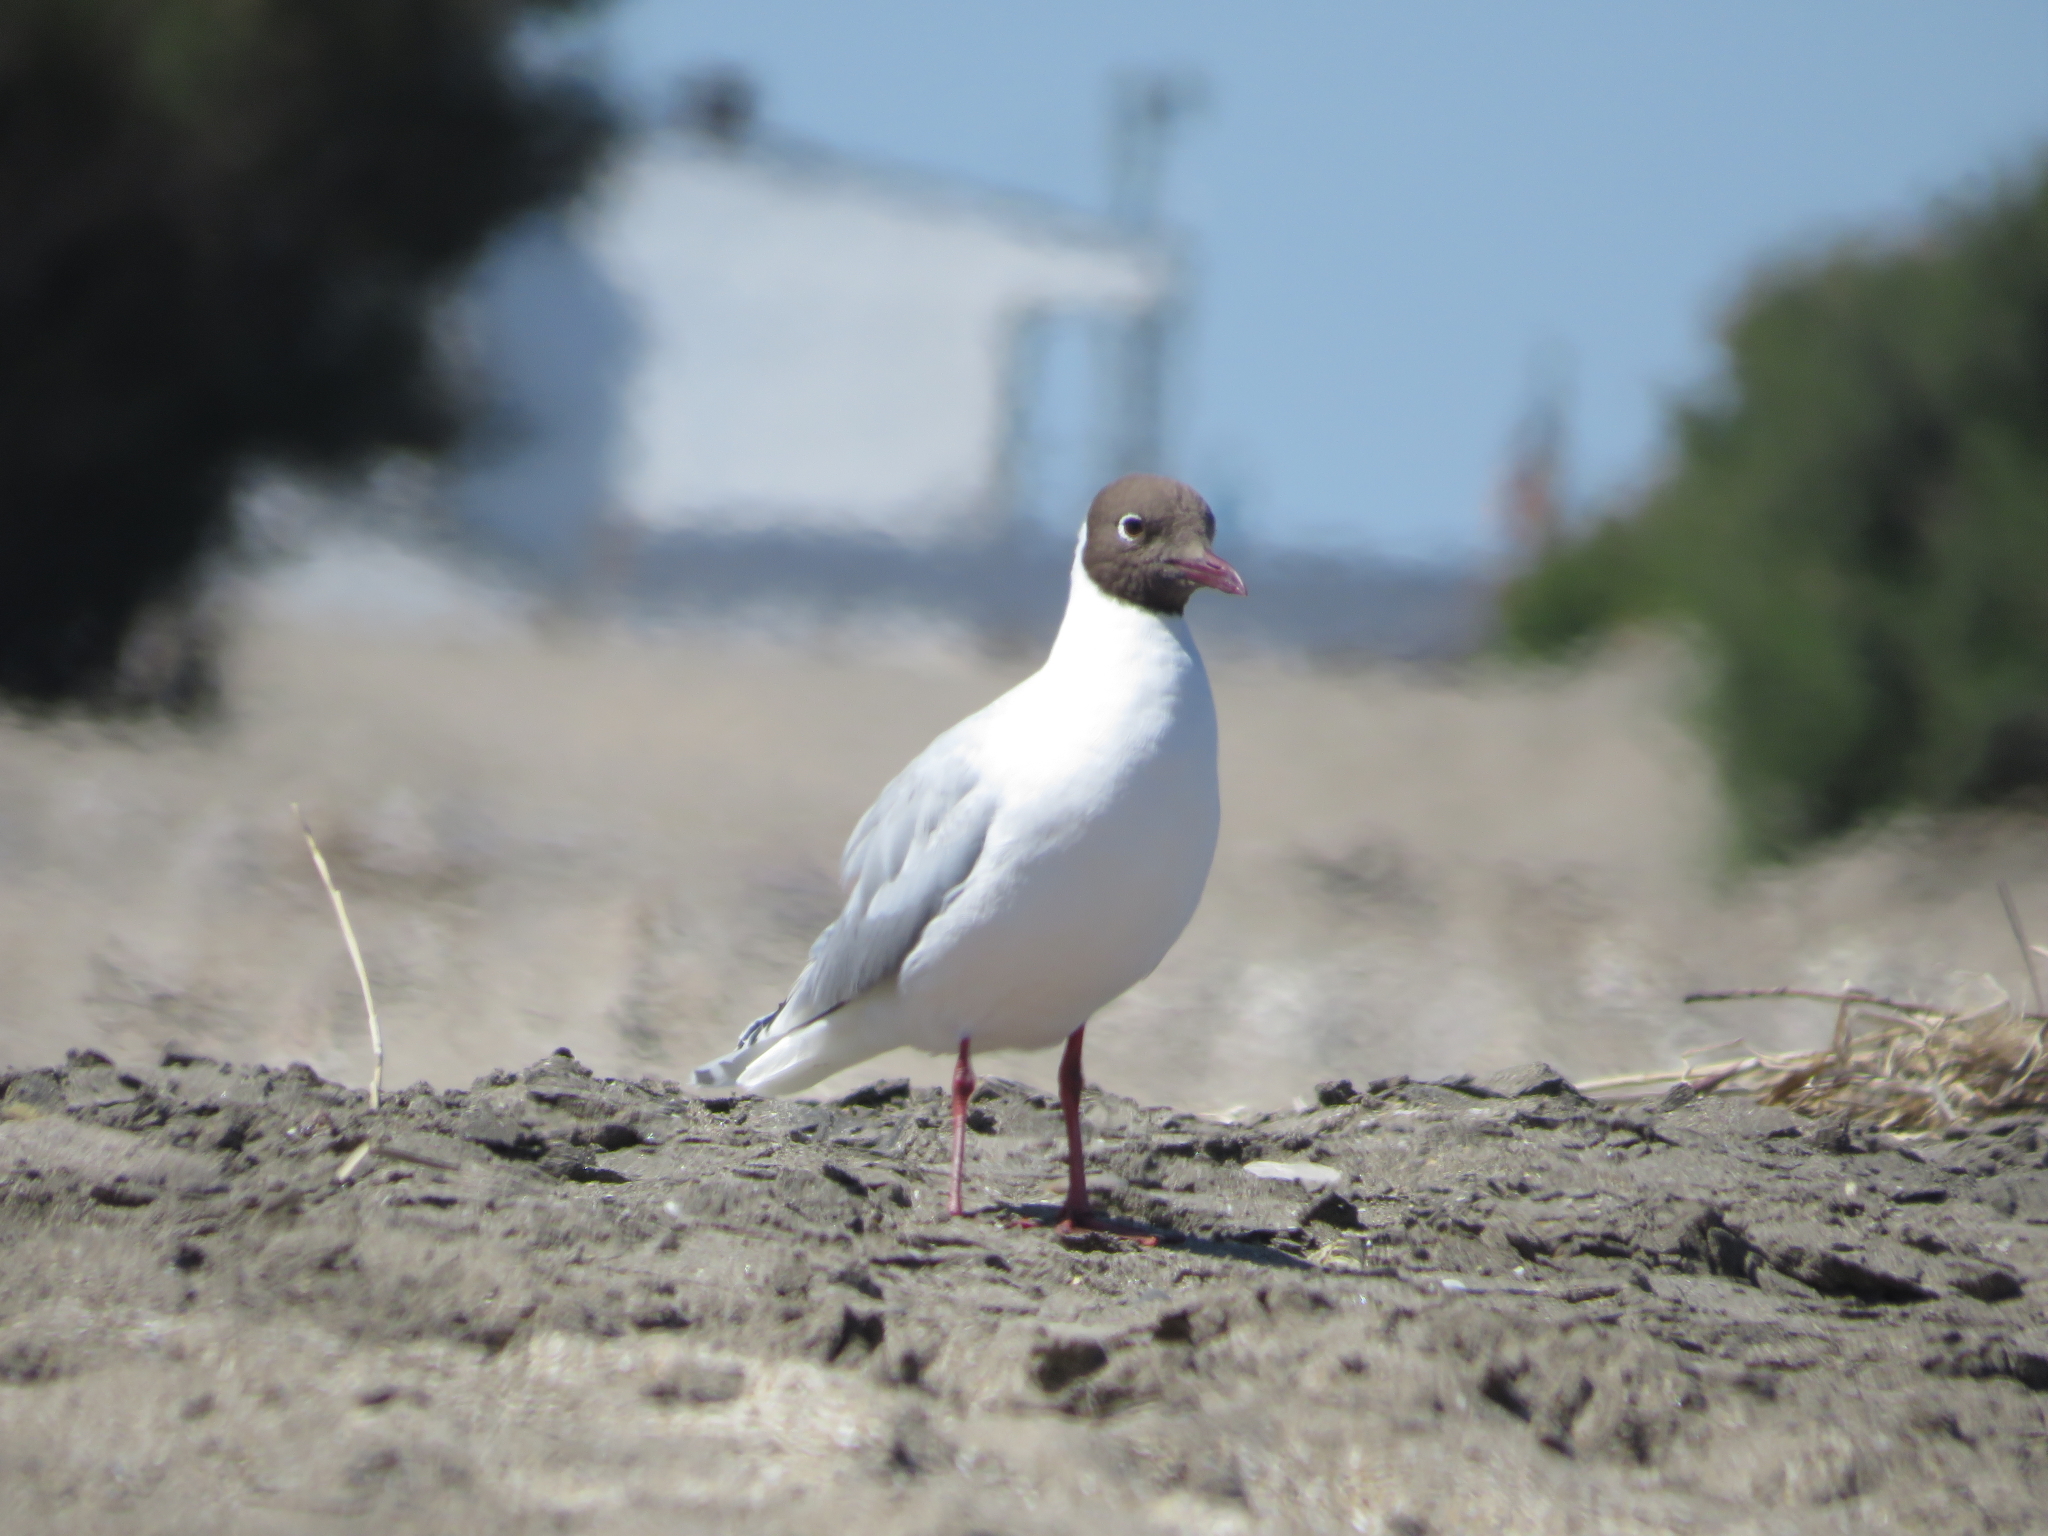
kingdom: Animalia
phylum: Chordata
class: Aves
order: Charadriiformes
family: Laridae
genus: Chroicocephalus
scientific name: Chroicocephalus maculipennis
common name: Brown-hooded gull
